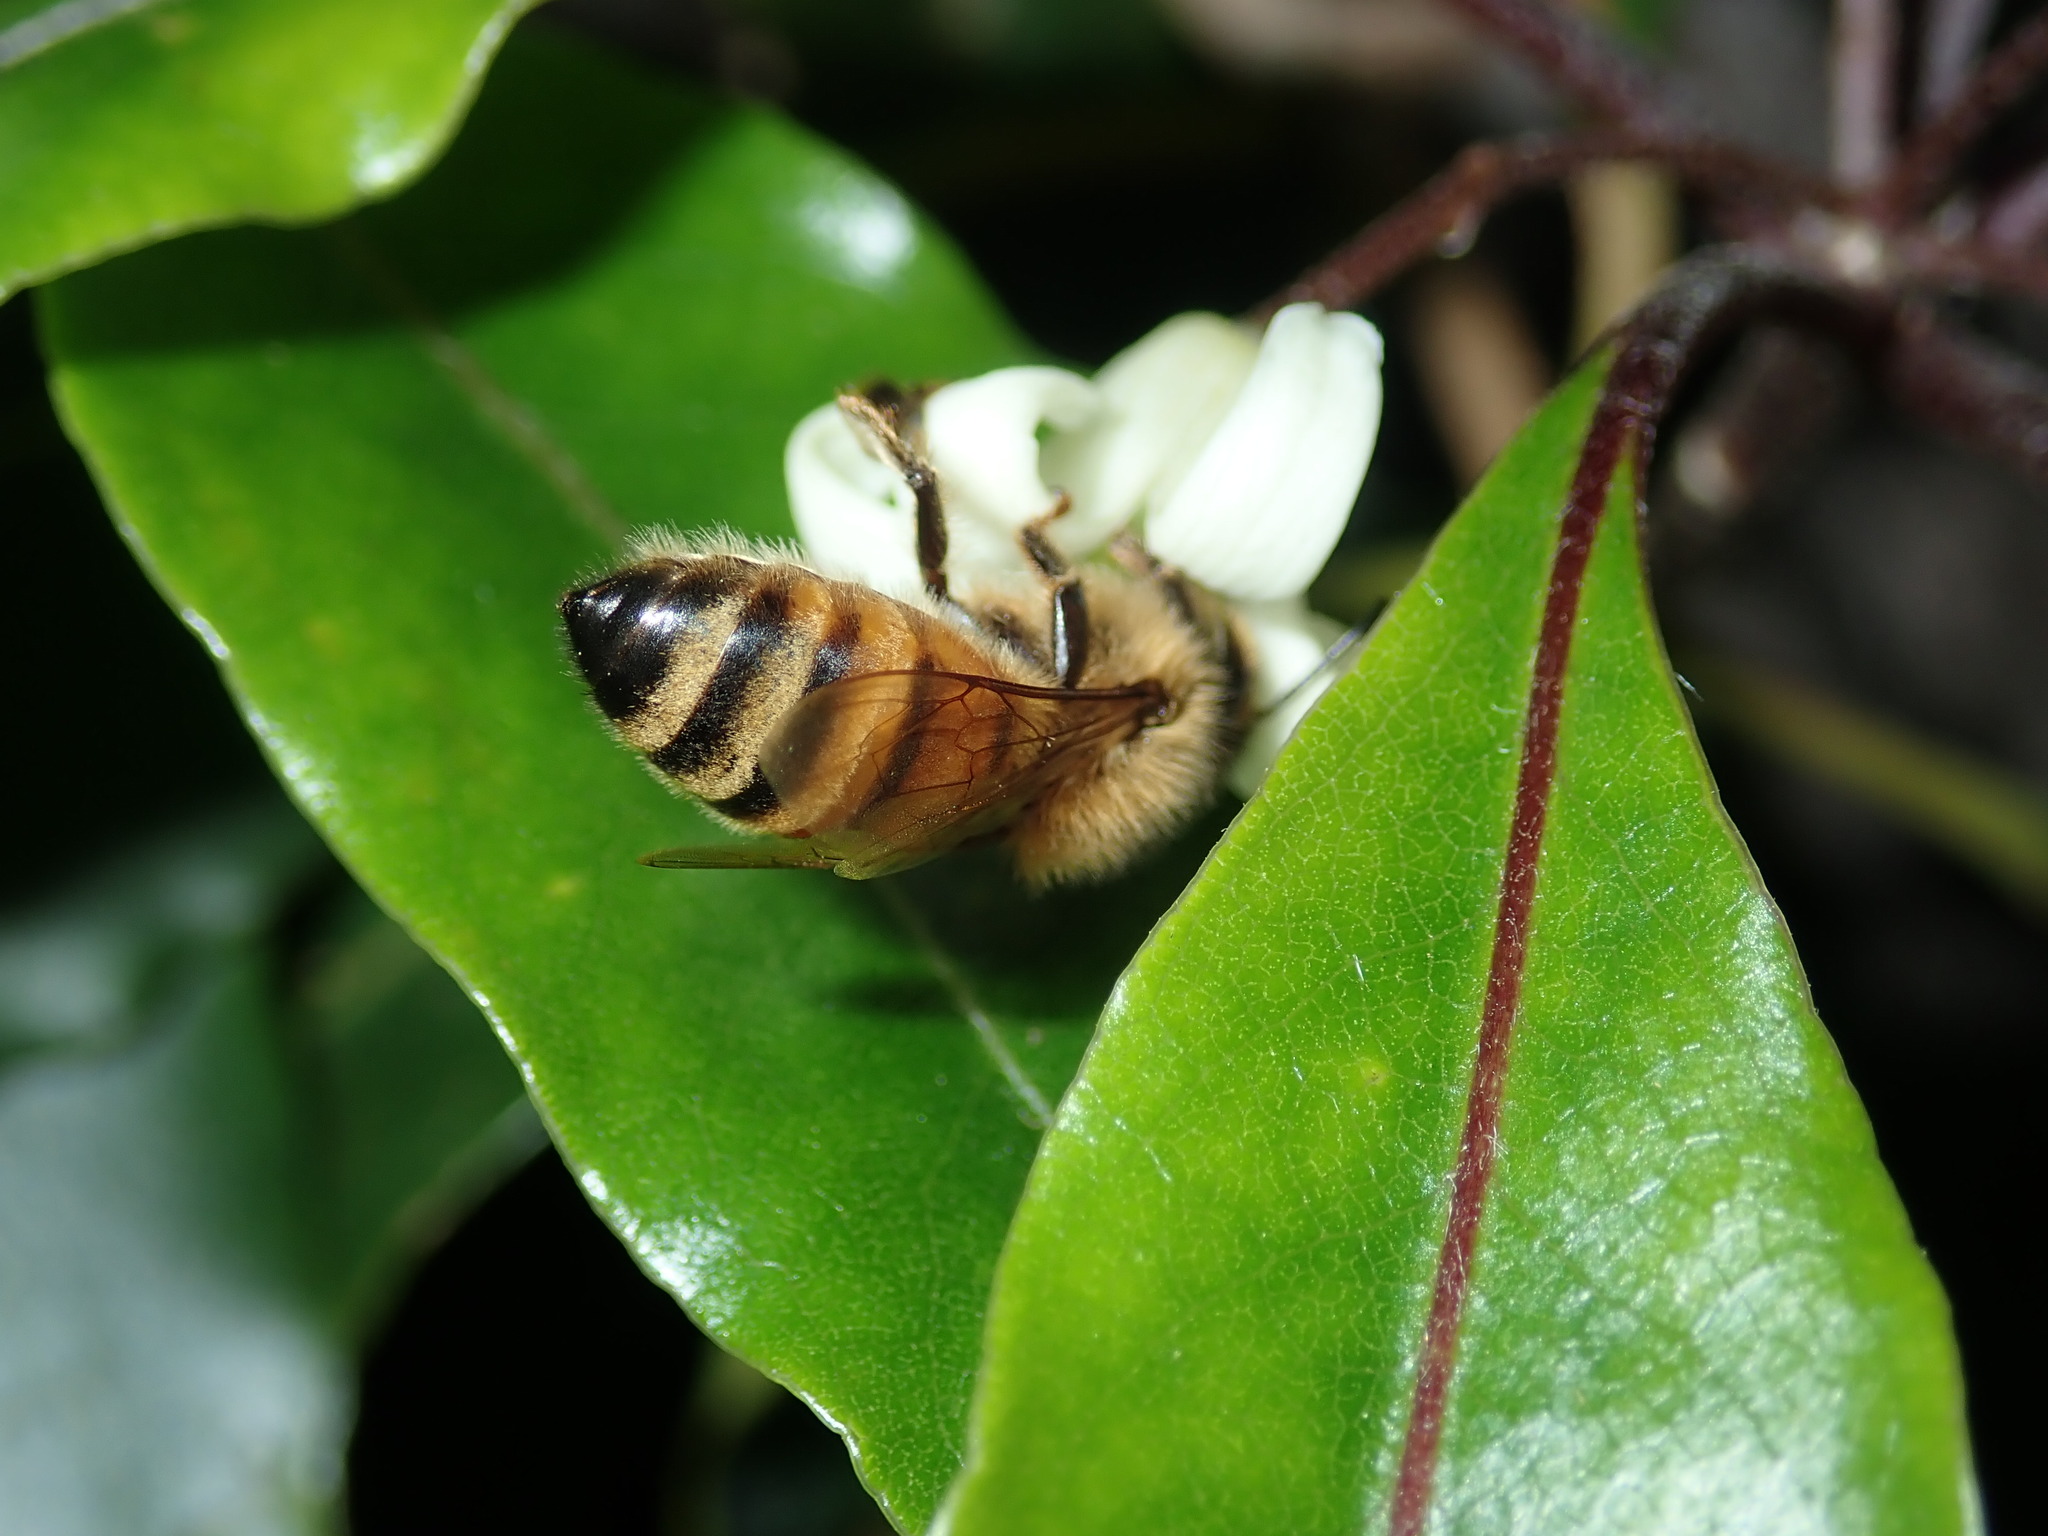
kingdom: Animalia
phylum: Arthropoda
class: Insecta
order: Hymenoptera
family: Apidae
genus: Apis
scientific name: Apis mellifera
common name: Honey bee
